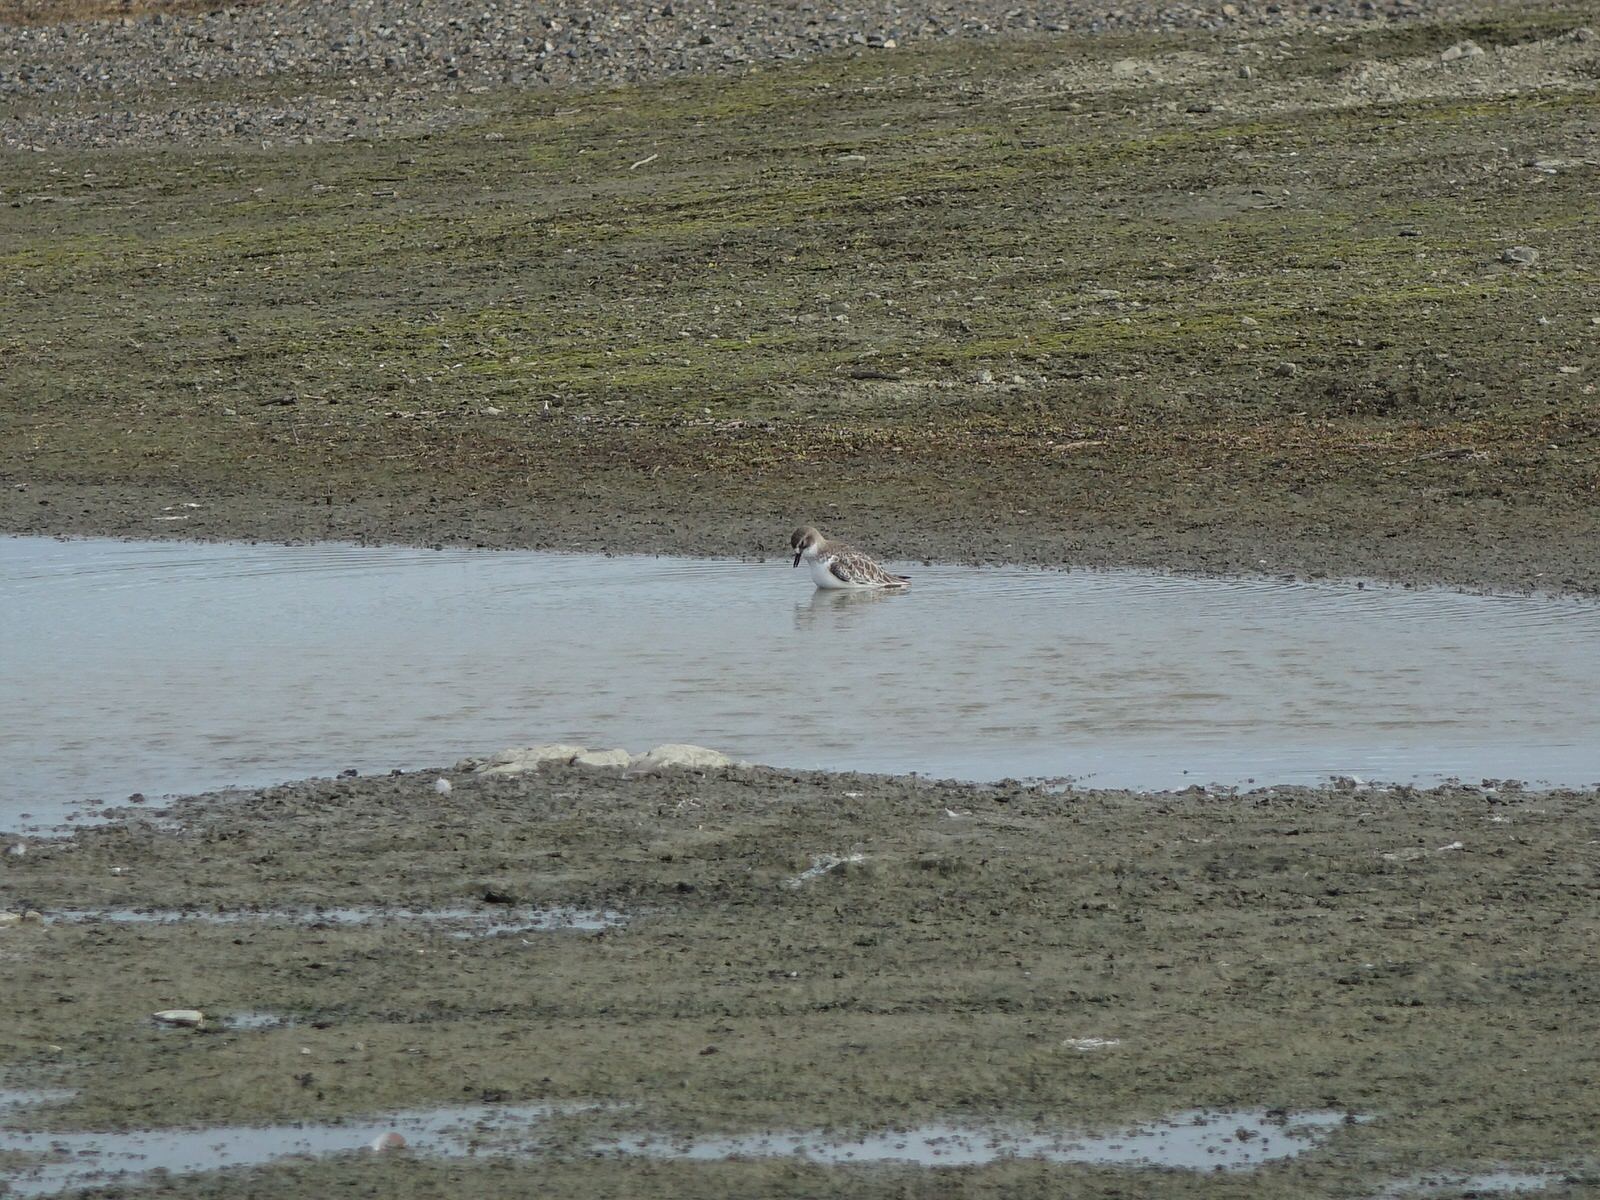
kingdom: Animalia
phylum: Chordata
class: Aves
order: Charadriiformes
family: Charadriidae
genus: Anarhynchus
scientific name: Anarhynchus
